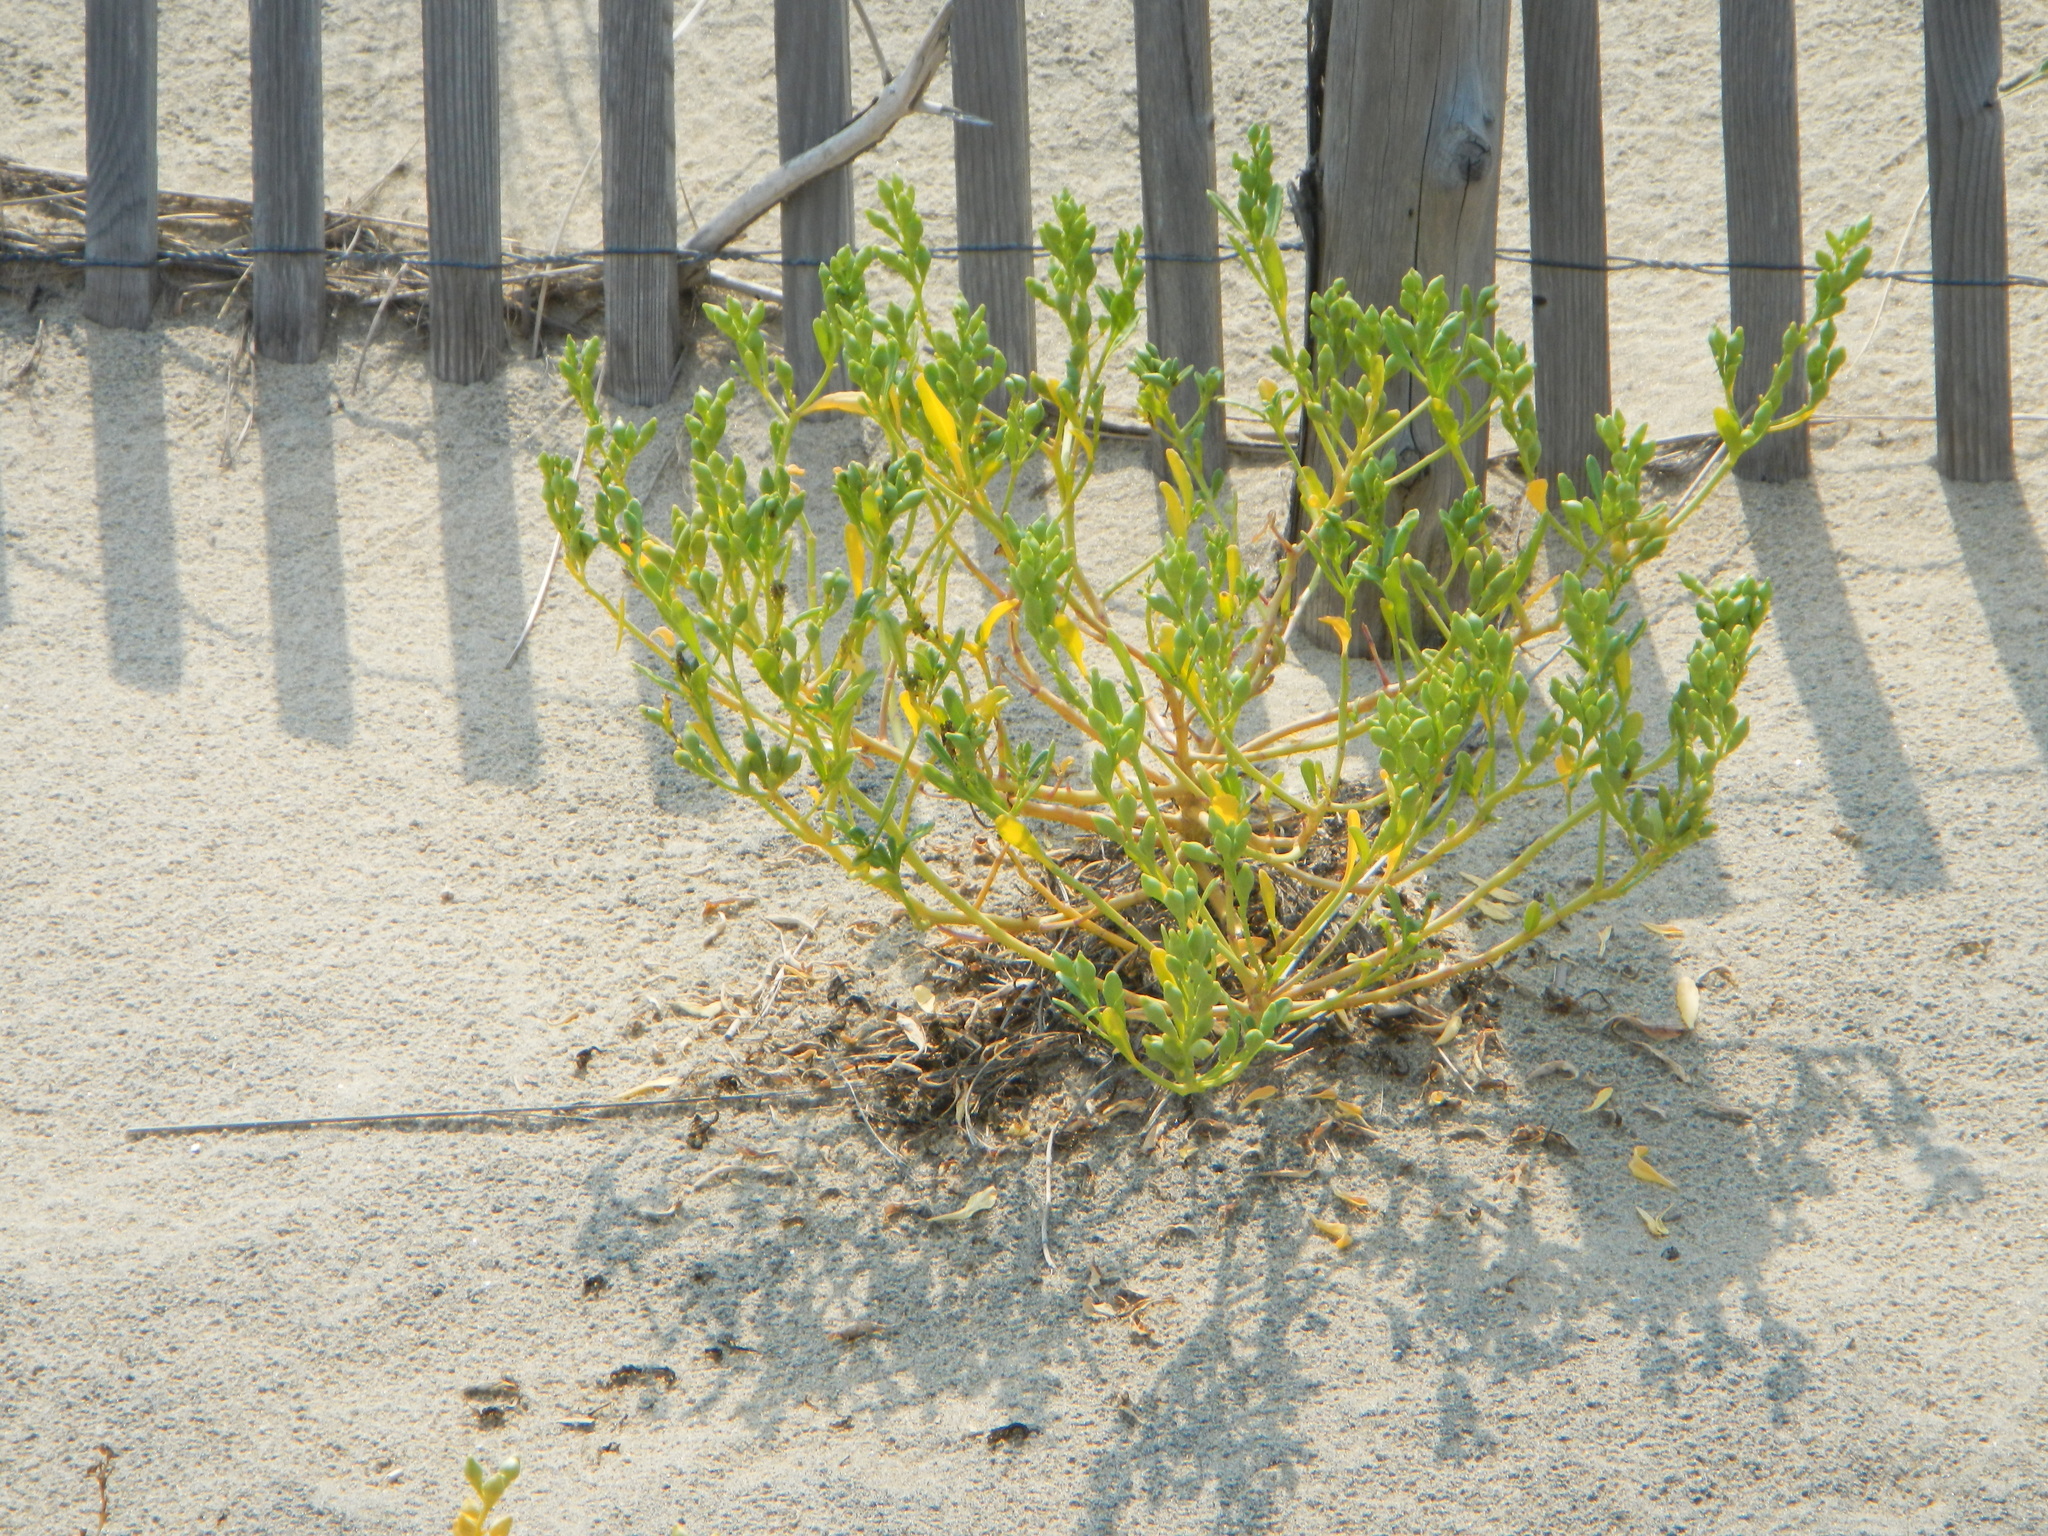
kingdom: Plantae
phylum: Tracheophyta
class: Magnoliopsida
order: Brassicales
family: Brassicaceae
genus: Cakile
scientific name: Cakile edentula
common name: American sea rocket
